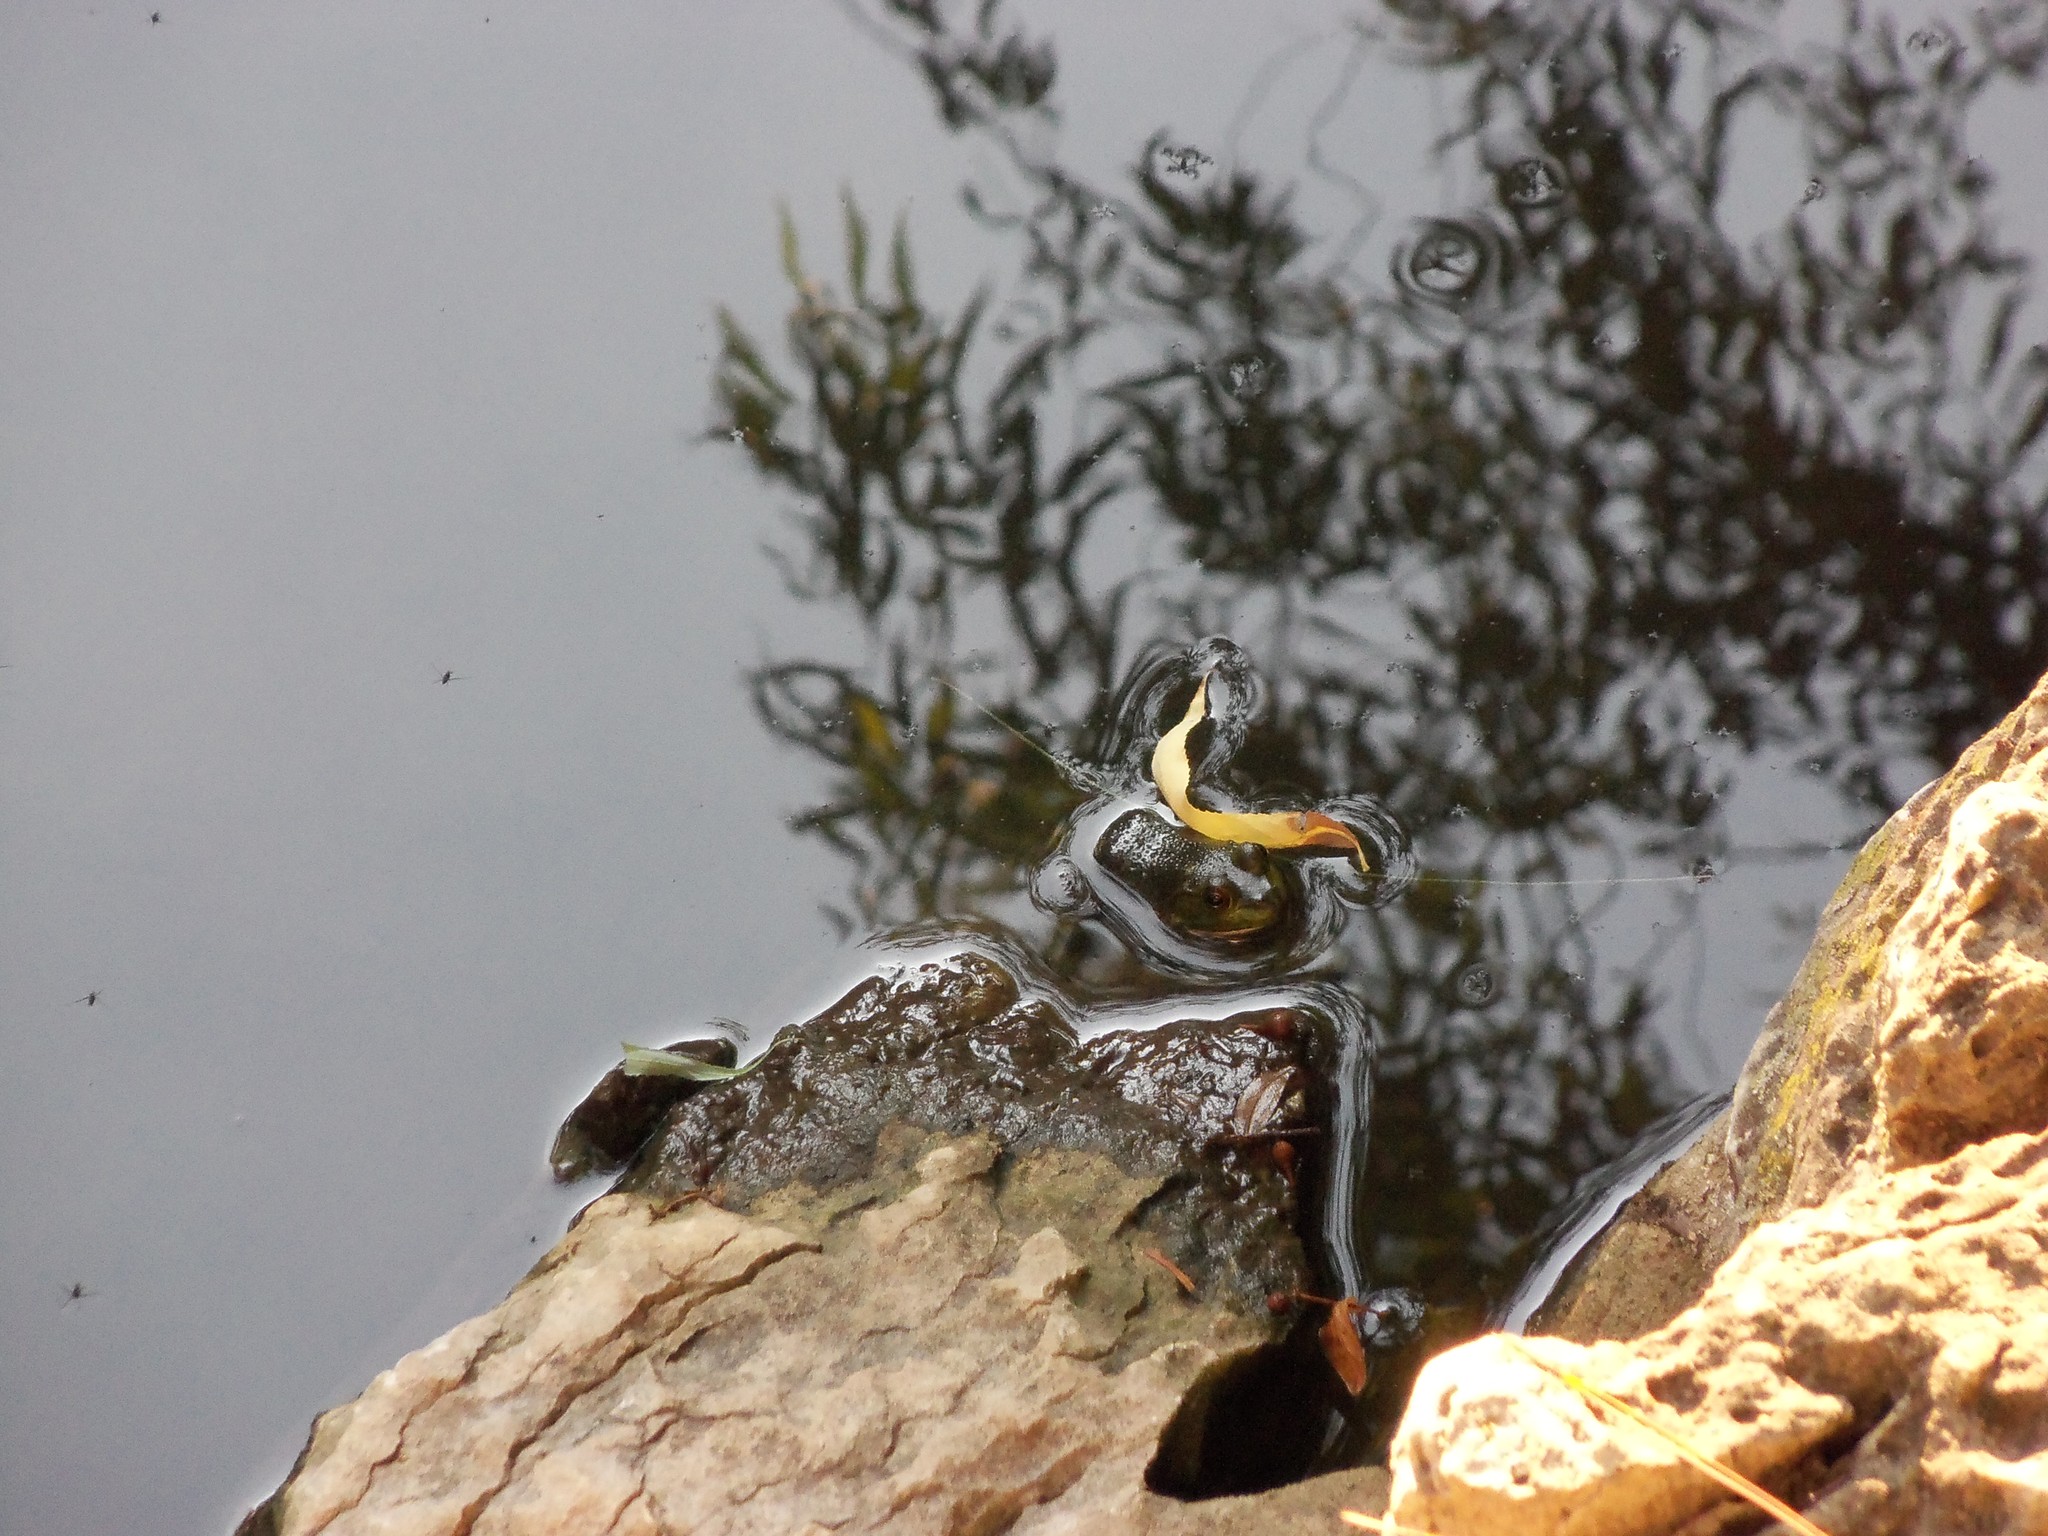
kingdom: Animalia
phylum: Chordata
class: Amphibia
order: Anura
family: Ranidae
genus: Lithobates
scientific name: Lithobates catesbeianus
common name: American bullfrog
